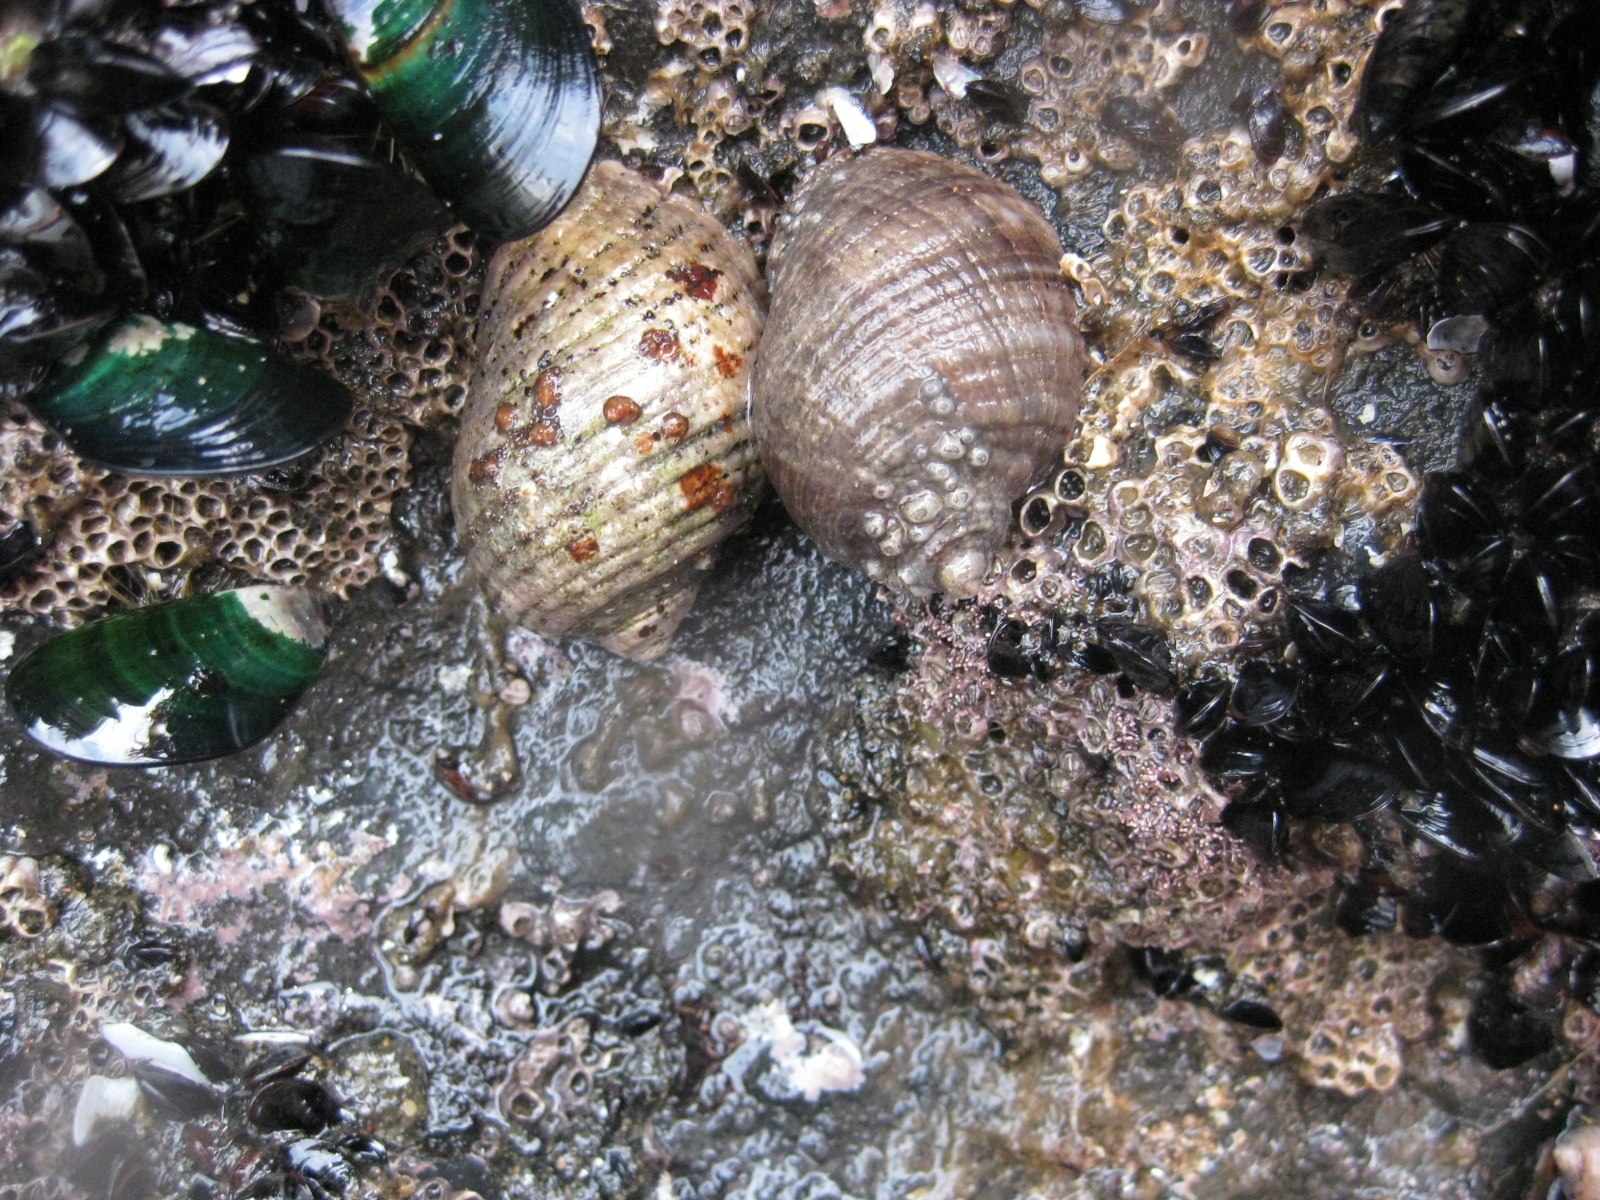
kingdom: Animalia
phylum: Mollusca
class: Gastropoda
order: Neogastropoda
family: Muricidae
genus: Dicathais
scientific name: Dicathais orbita
